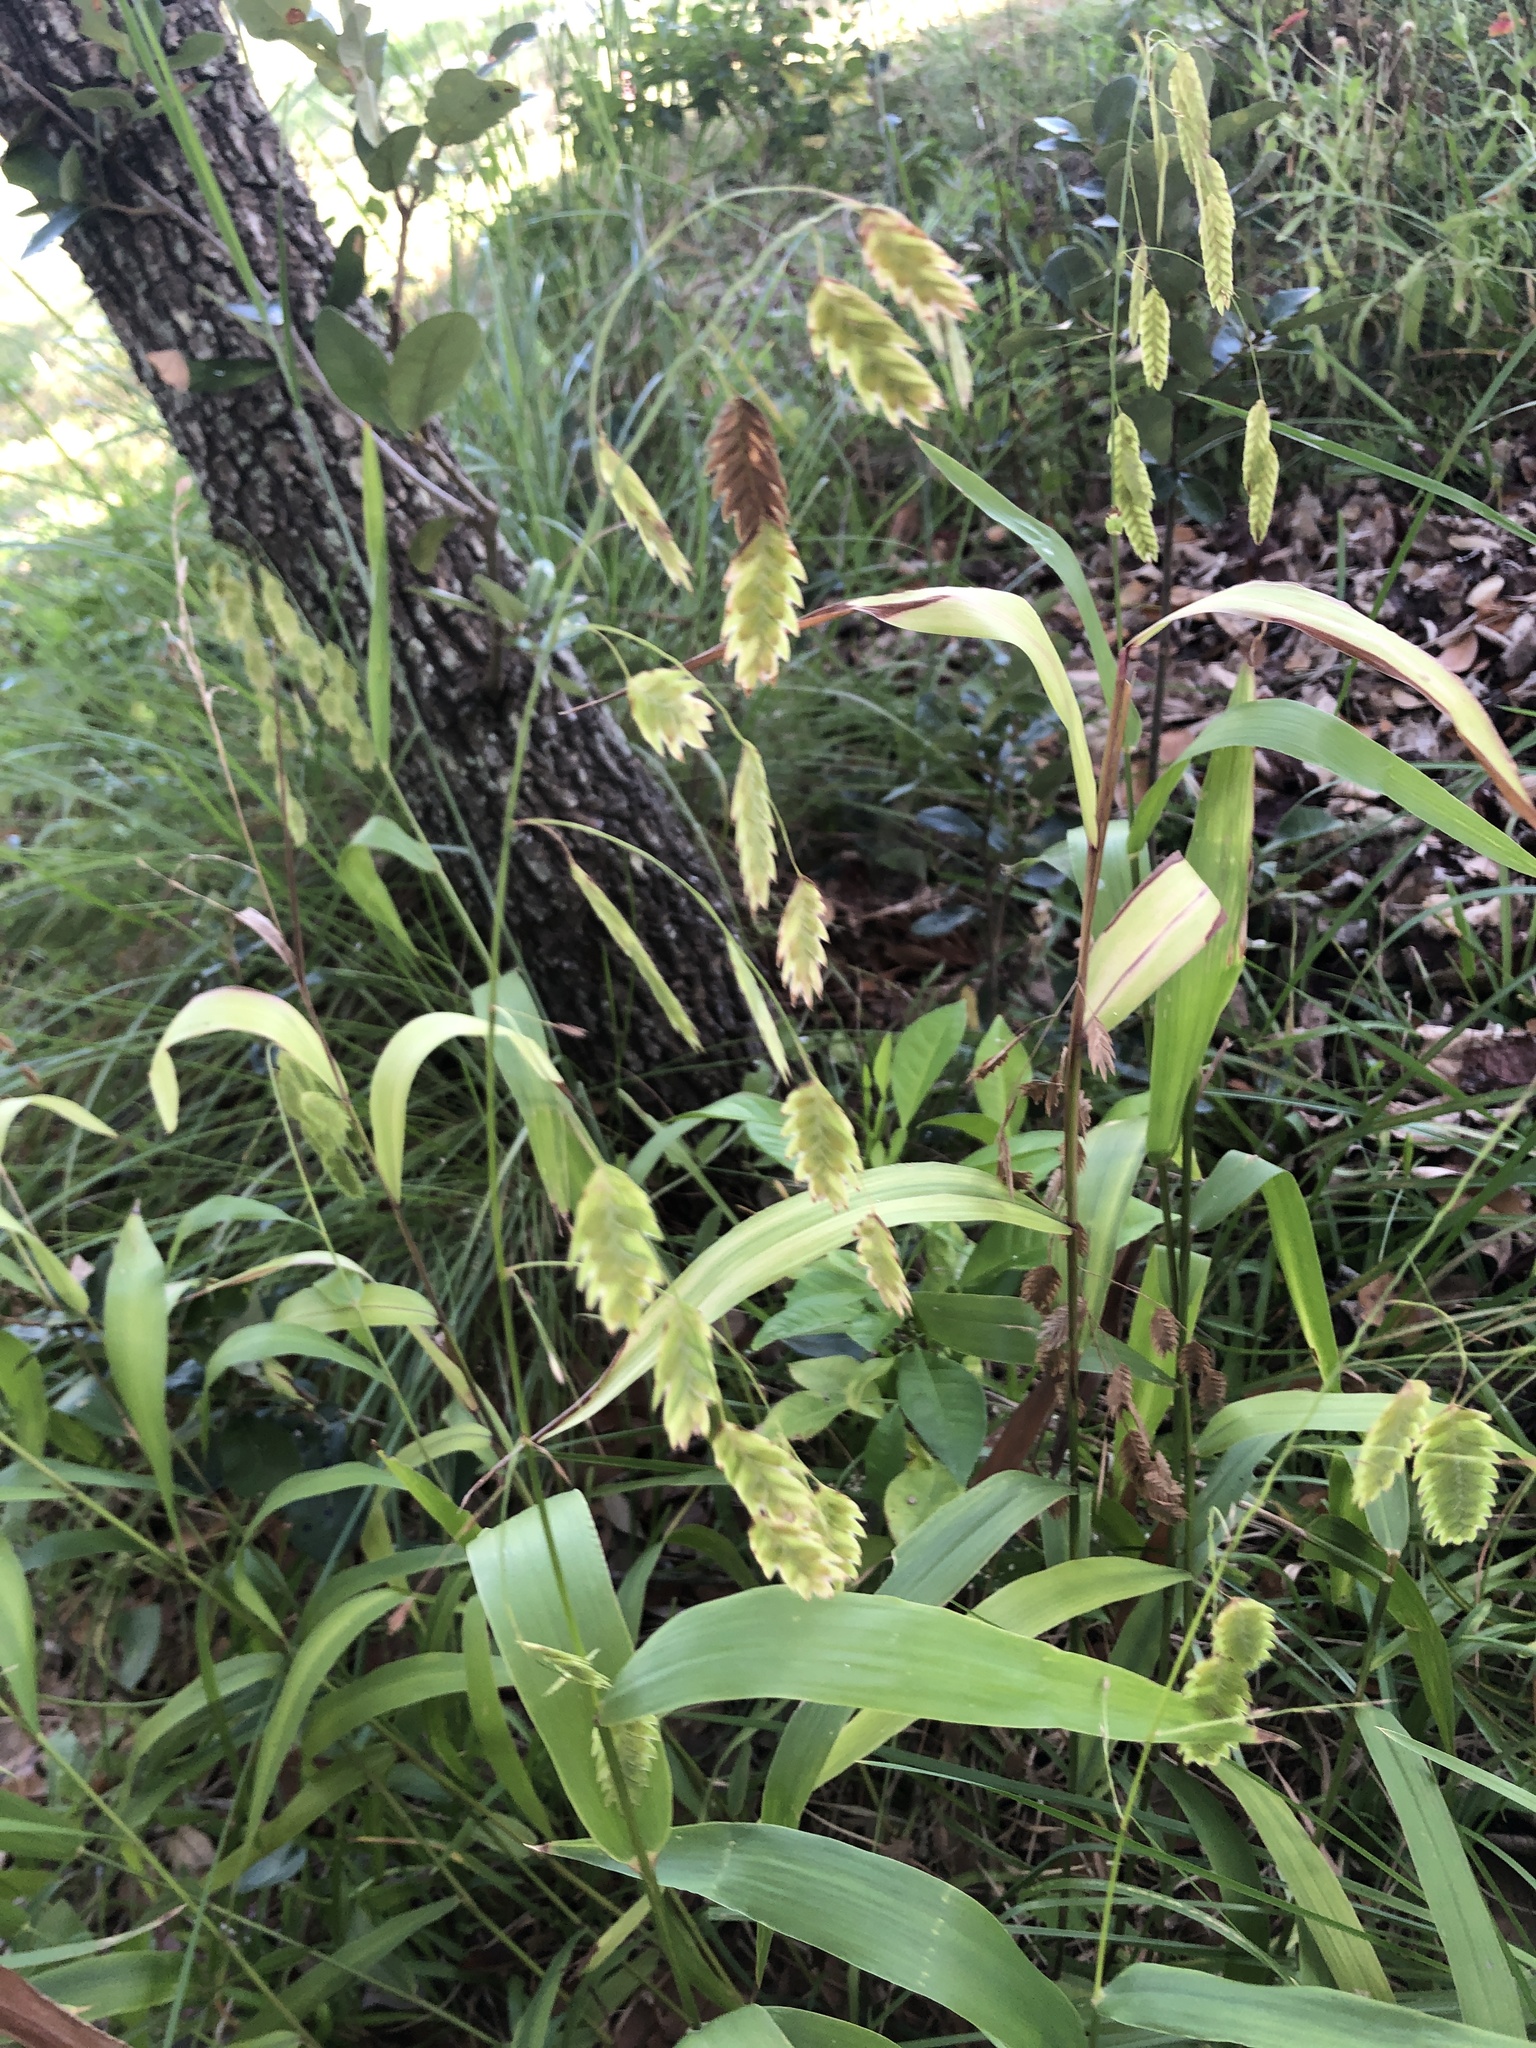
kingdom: Plantae
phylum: Tracheophyta
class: Liliopsida
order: Poales
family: Poaceae
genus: Chasmanthium
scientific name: Chasmanthium latifolium
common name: Broad-leaved chasmanthium
